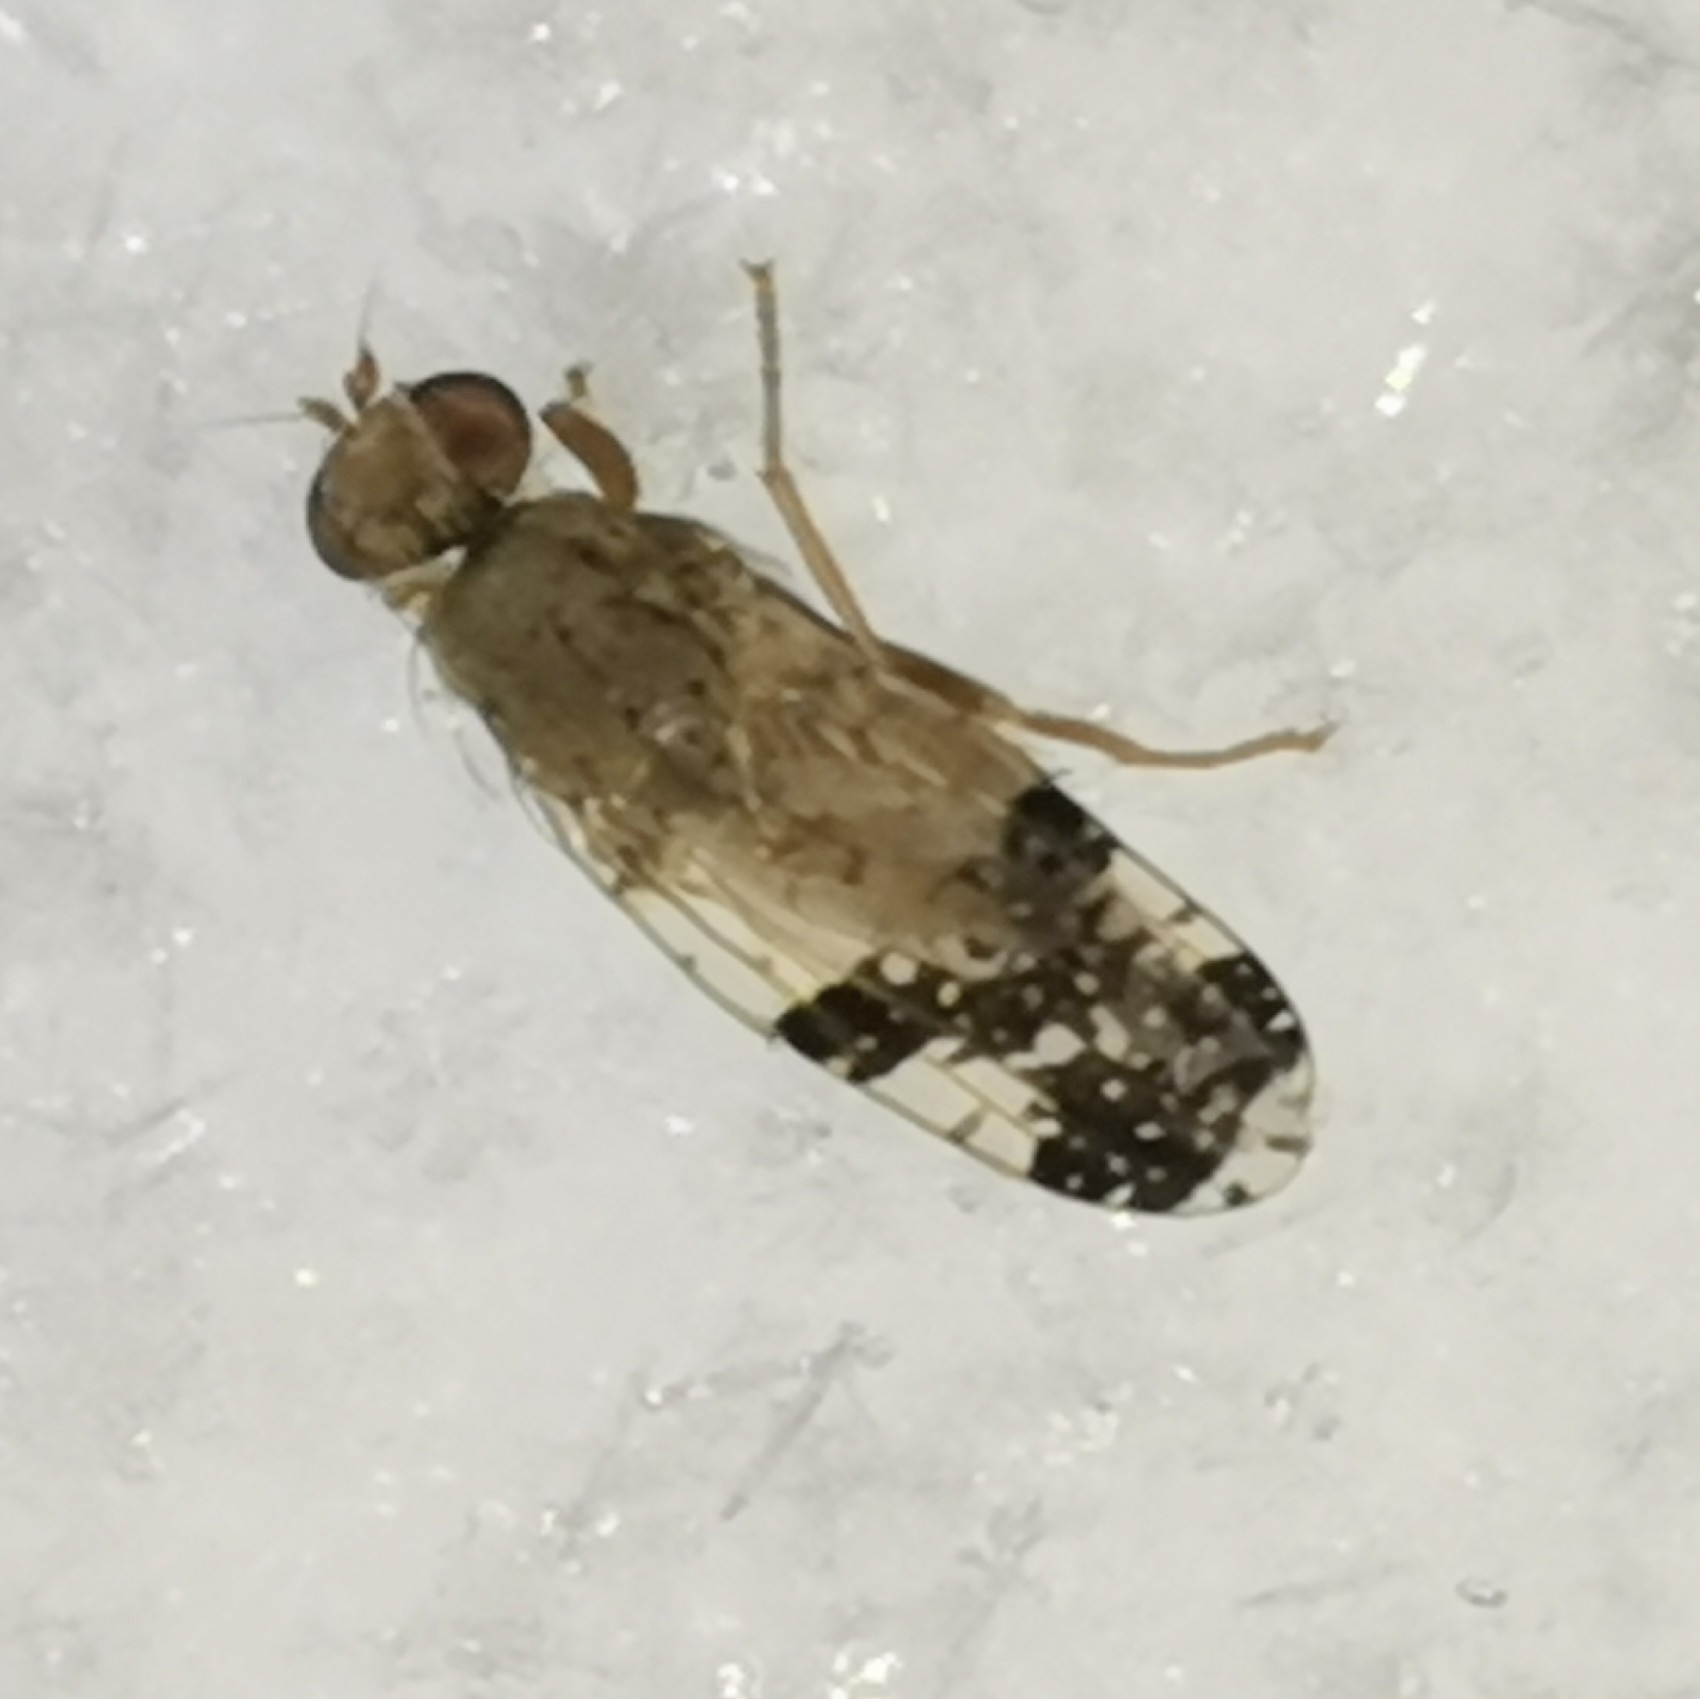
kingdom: Animalia
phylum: Arthropoda
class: Insecta
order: Diptera
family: Tephritidae
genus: Tephritis
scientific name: Tephritis bardanae
